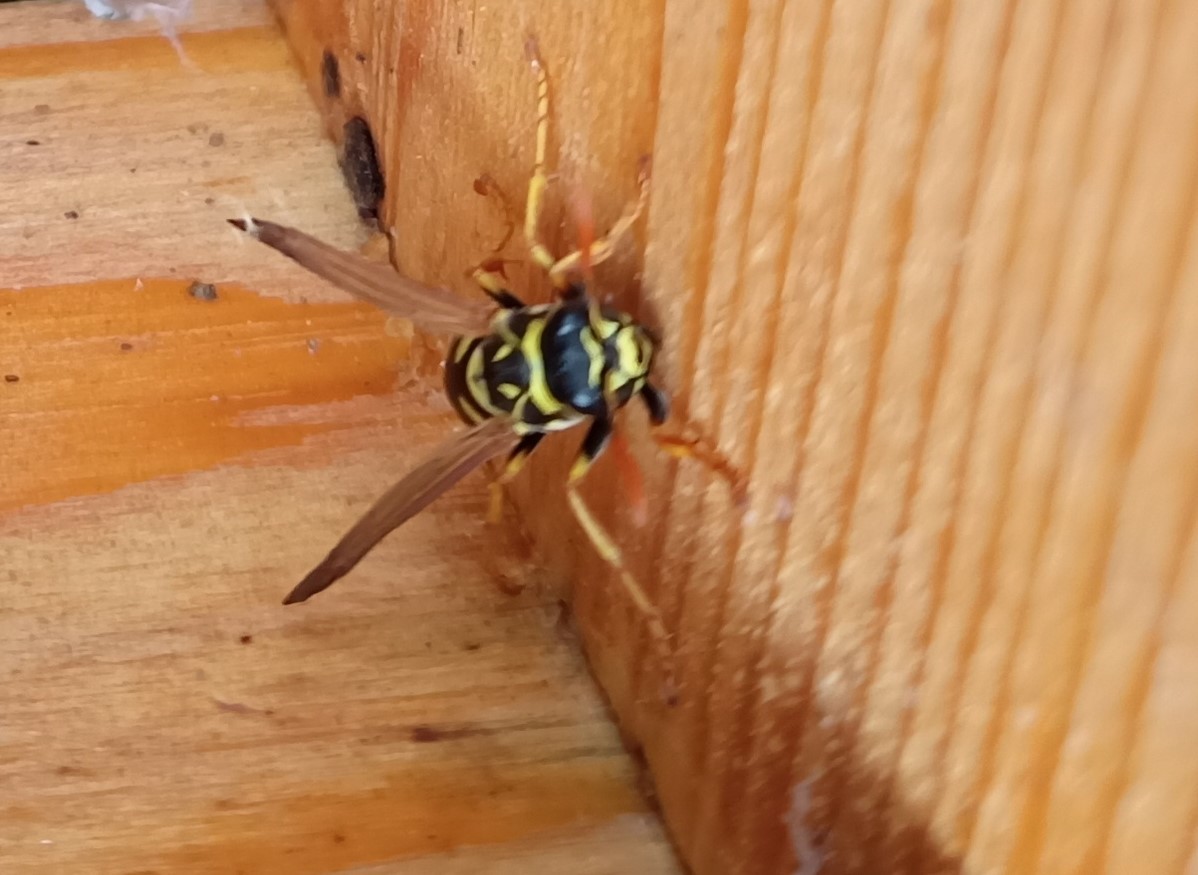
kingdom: Animalia
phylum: Arthropoda
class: Insecta
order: Hymenoptera
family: Eumenidae
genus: Polistes
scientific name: Polistes dominula
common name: Paper wasp
